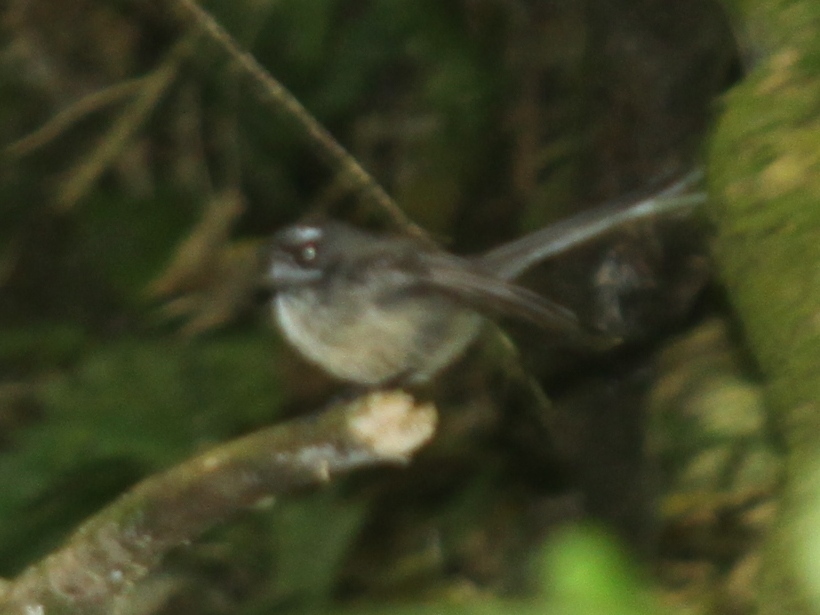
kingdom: Animalia
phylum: Chordata
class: Aves
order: Passeriformes
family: Rhipiduridae
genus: Rhipidura
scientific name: Rhipidura fuliginosa
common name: New zealand fantail
